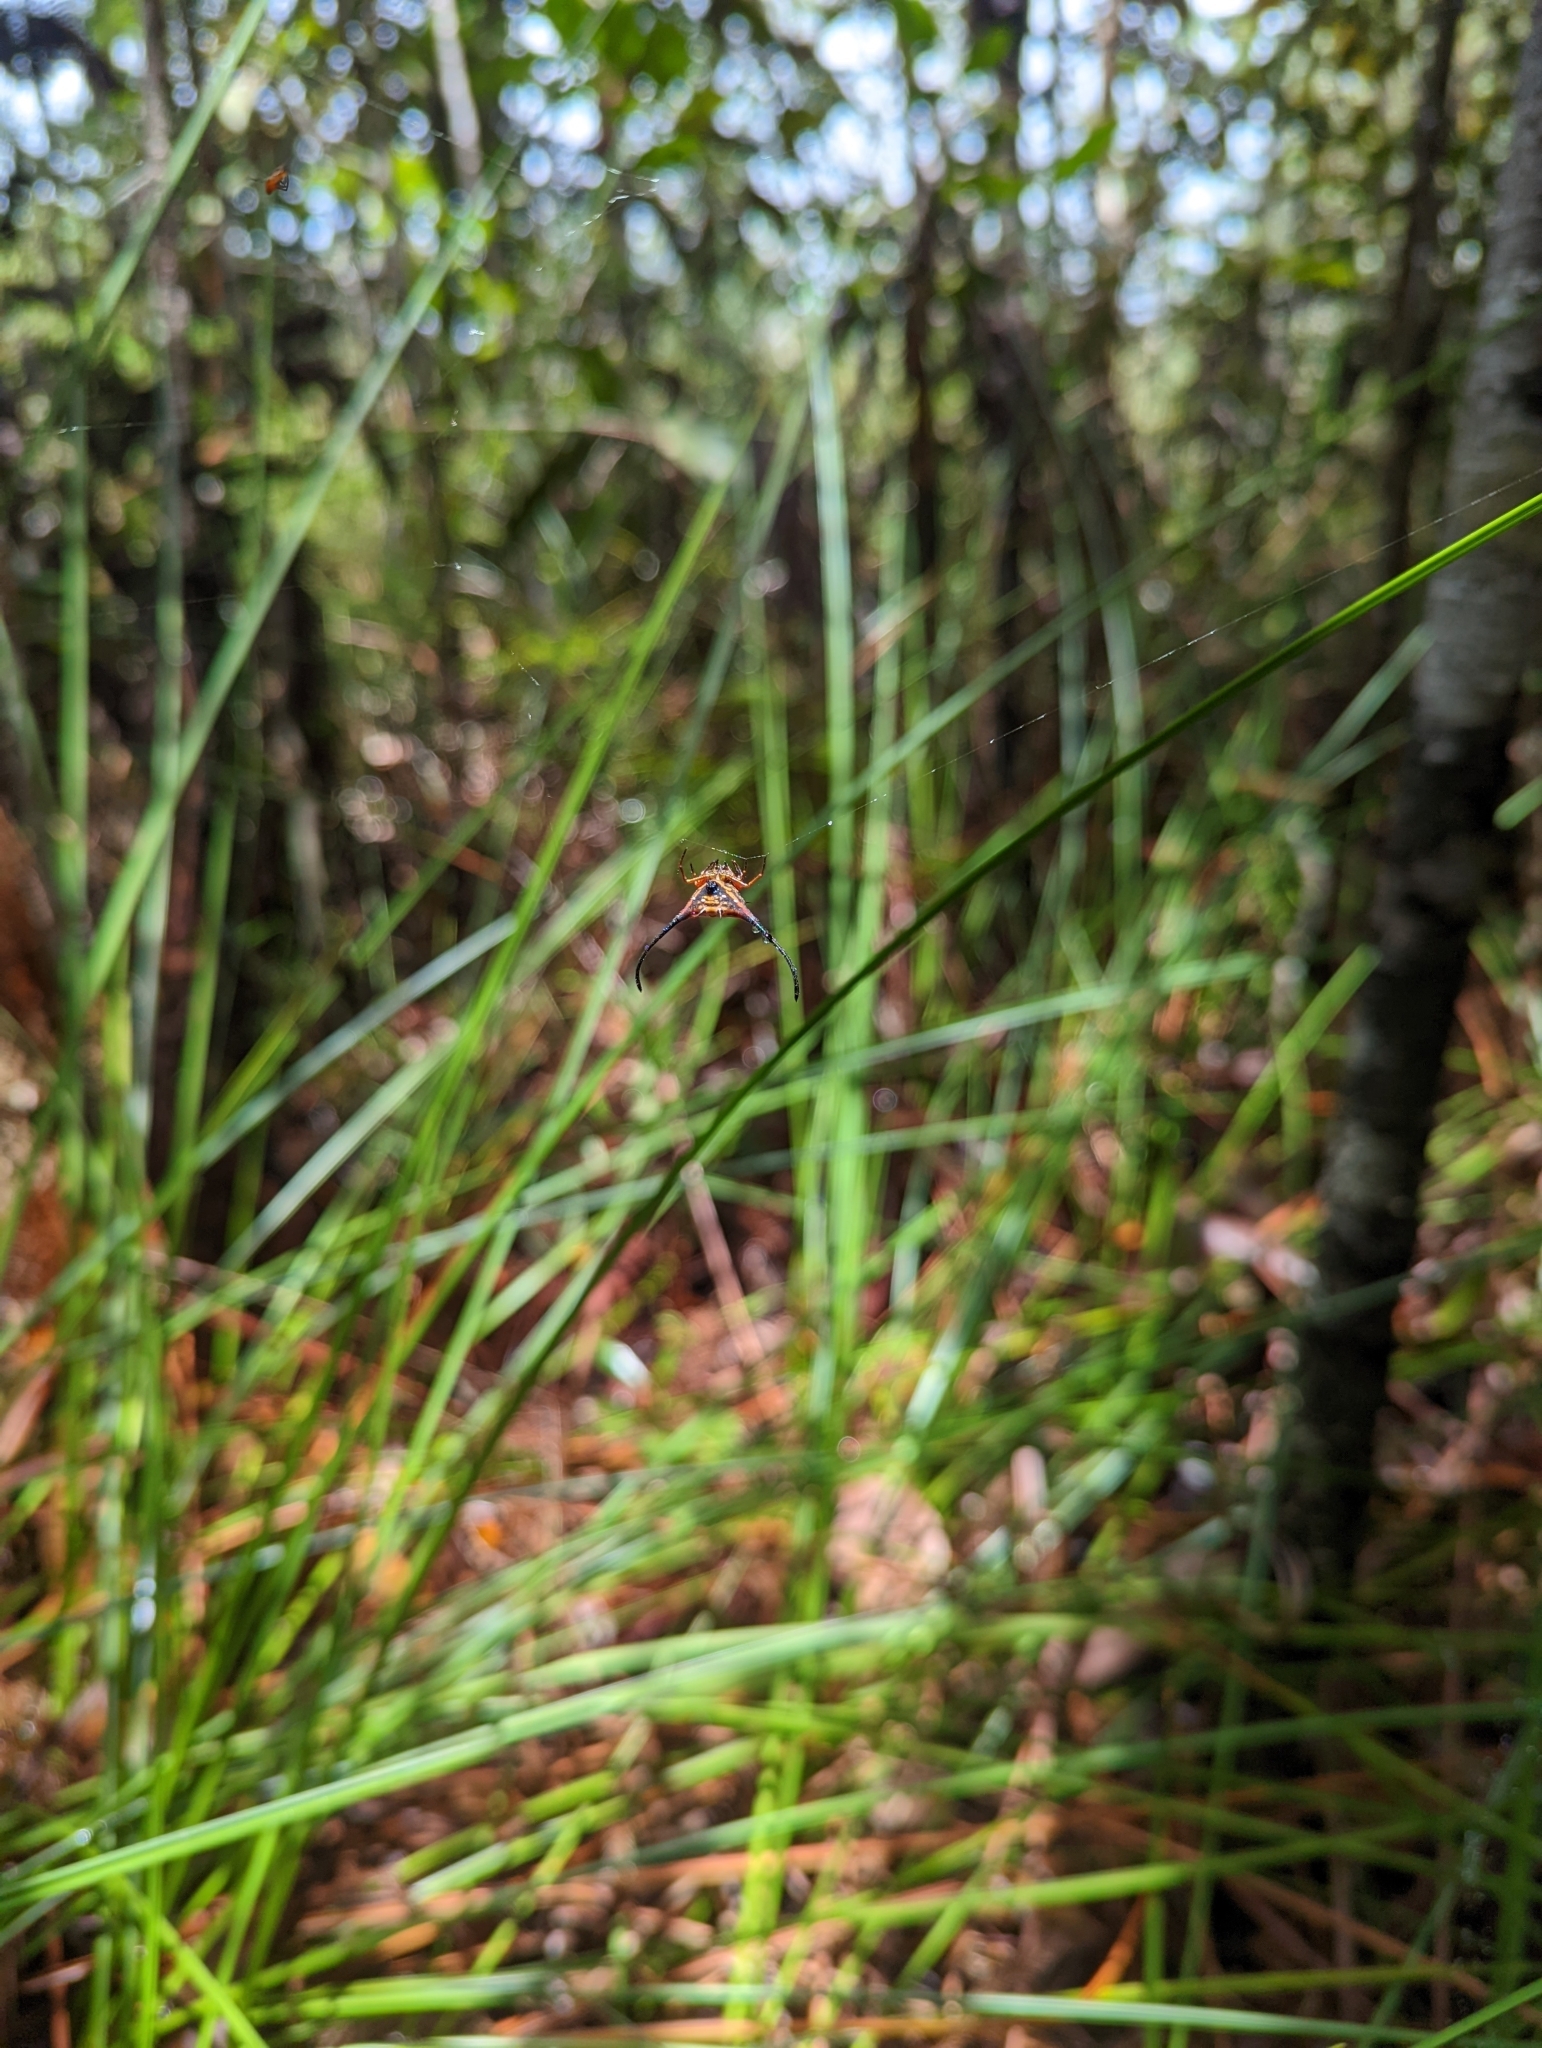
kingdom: Animalia
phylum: Arthropoda
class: Arachnida
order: Araneae
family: Araneidae
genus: Macracantha
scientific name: Macracantha arcuata
